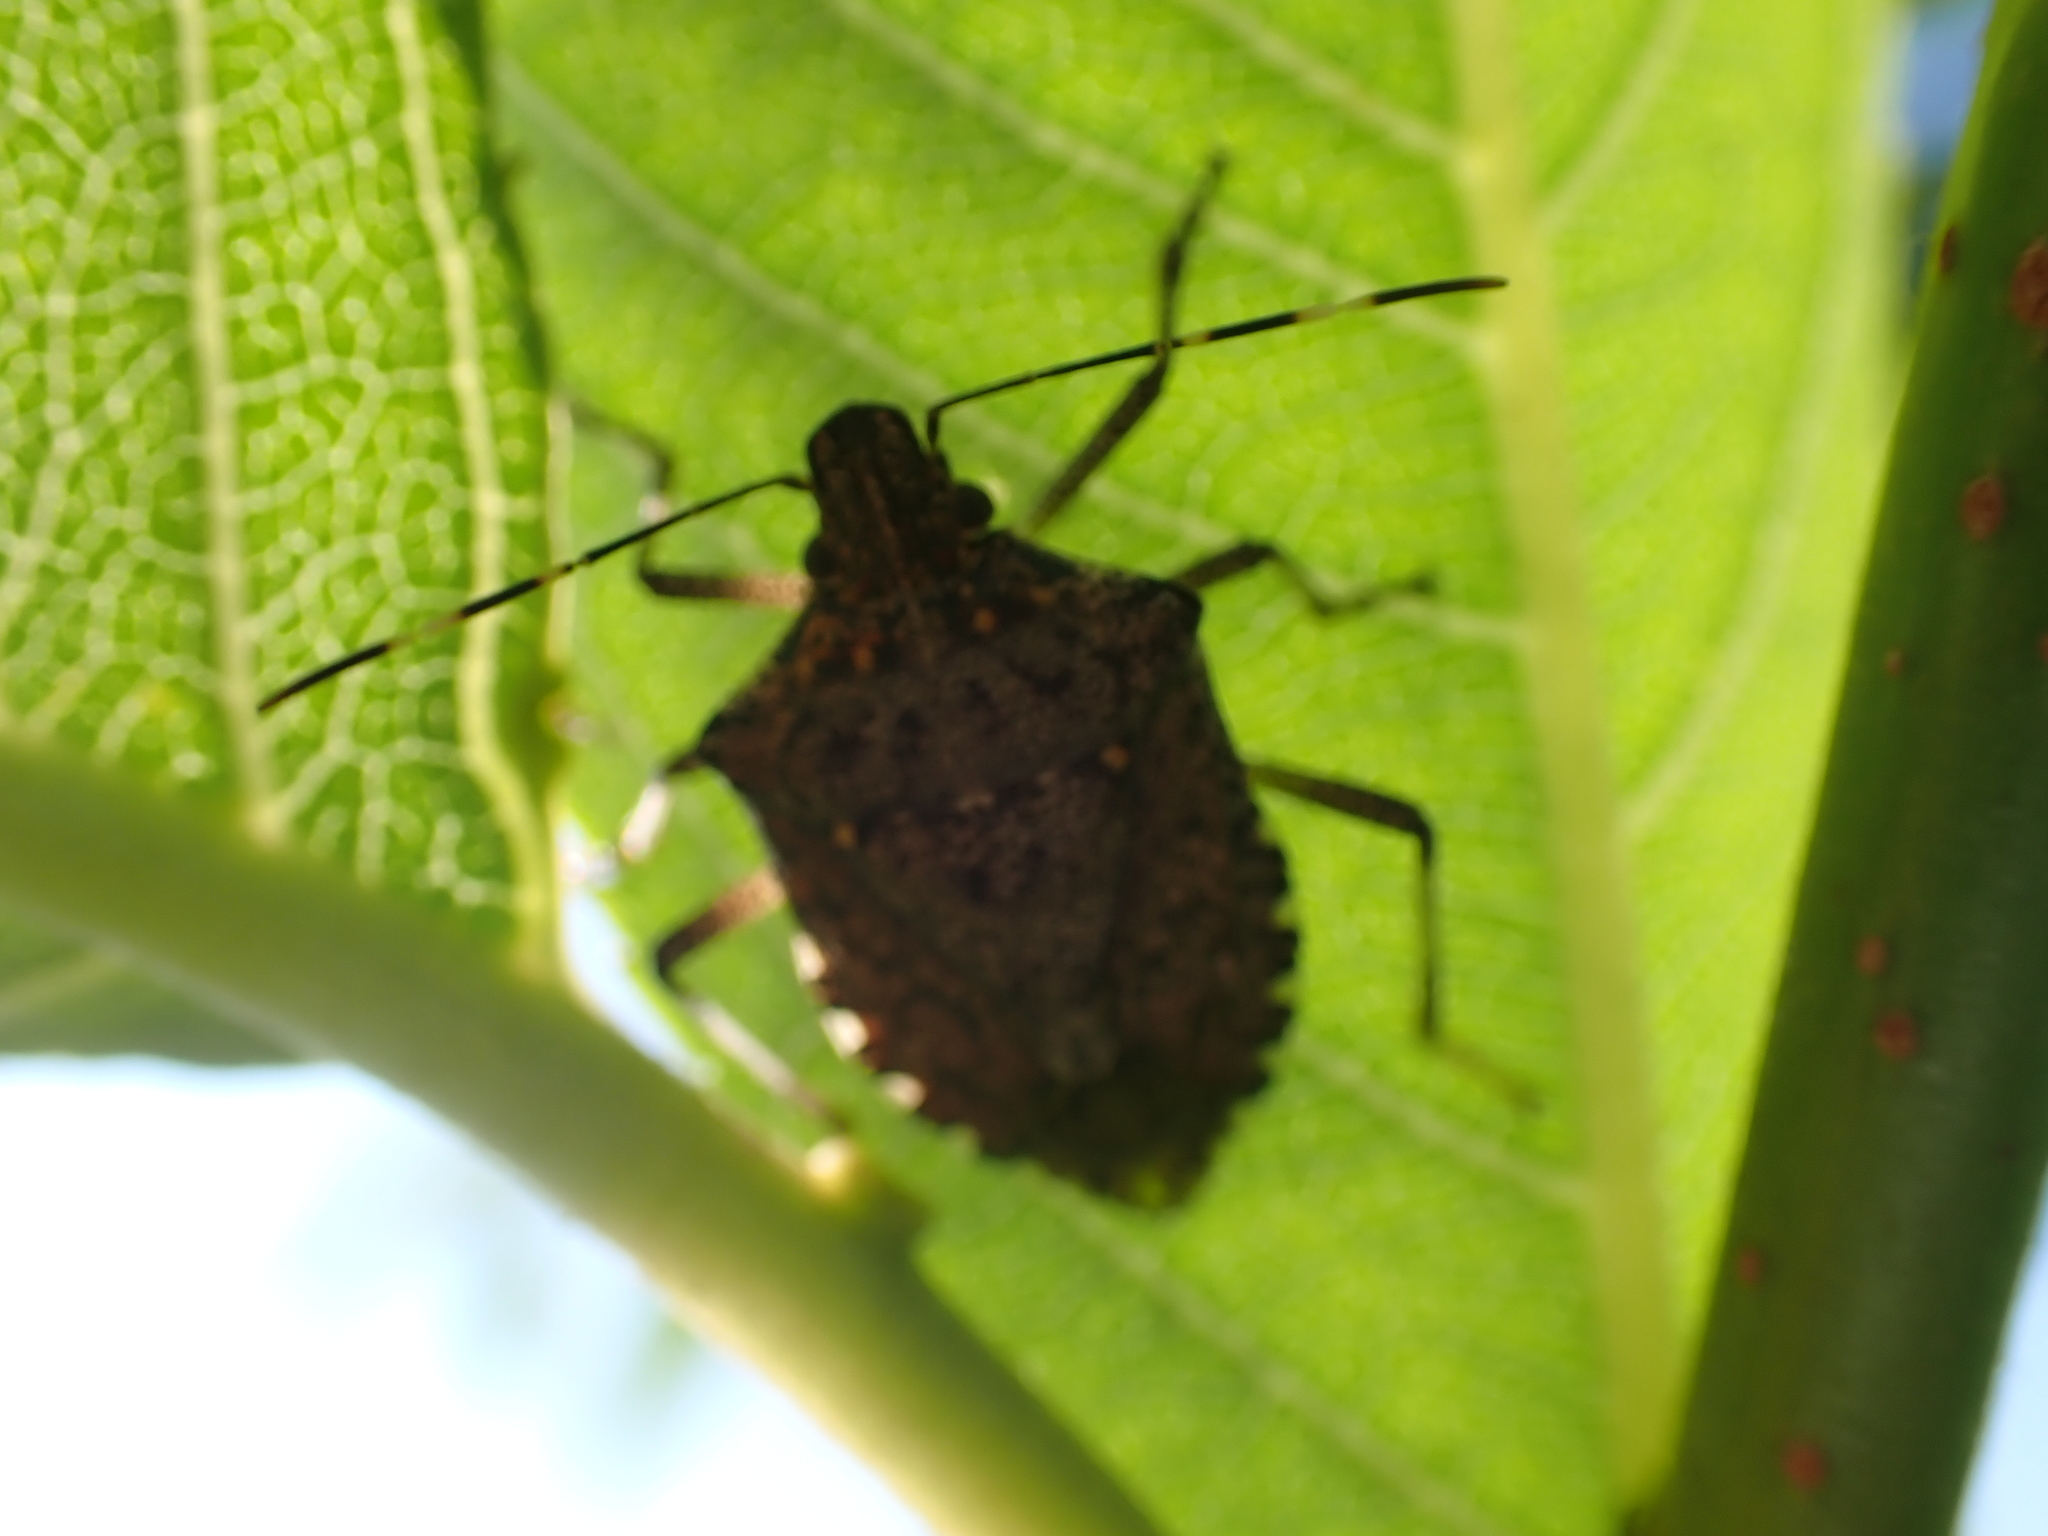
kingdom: Animalia
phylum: Arthropoda
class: Insecta
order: Hemiptera
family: Pentatomidae
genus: Halyomorpha
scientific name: Halyomorpha halys
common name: Brown marmorated stink bug
